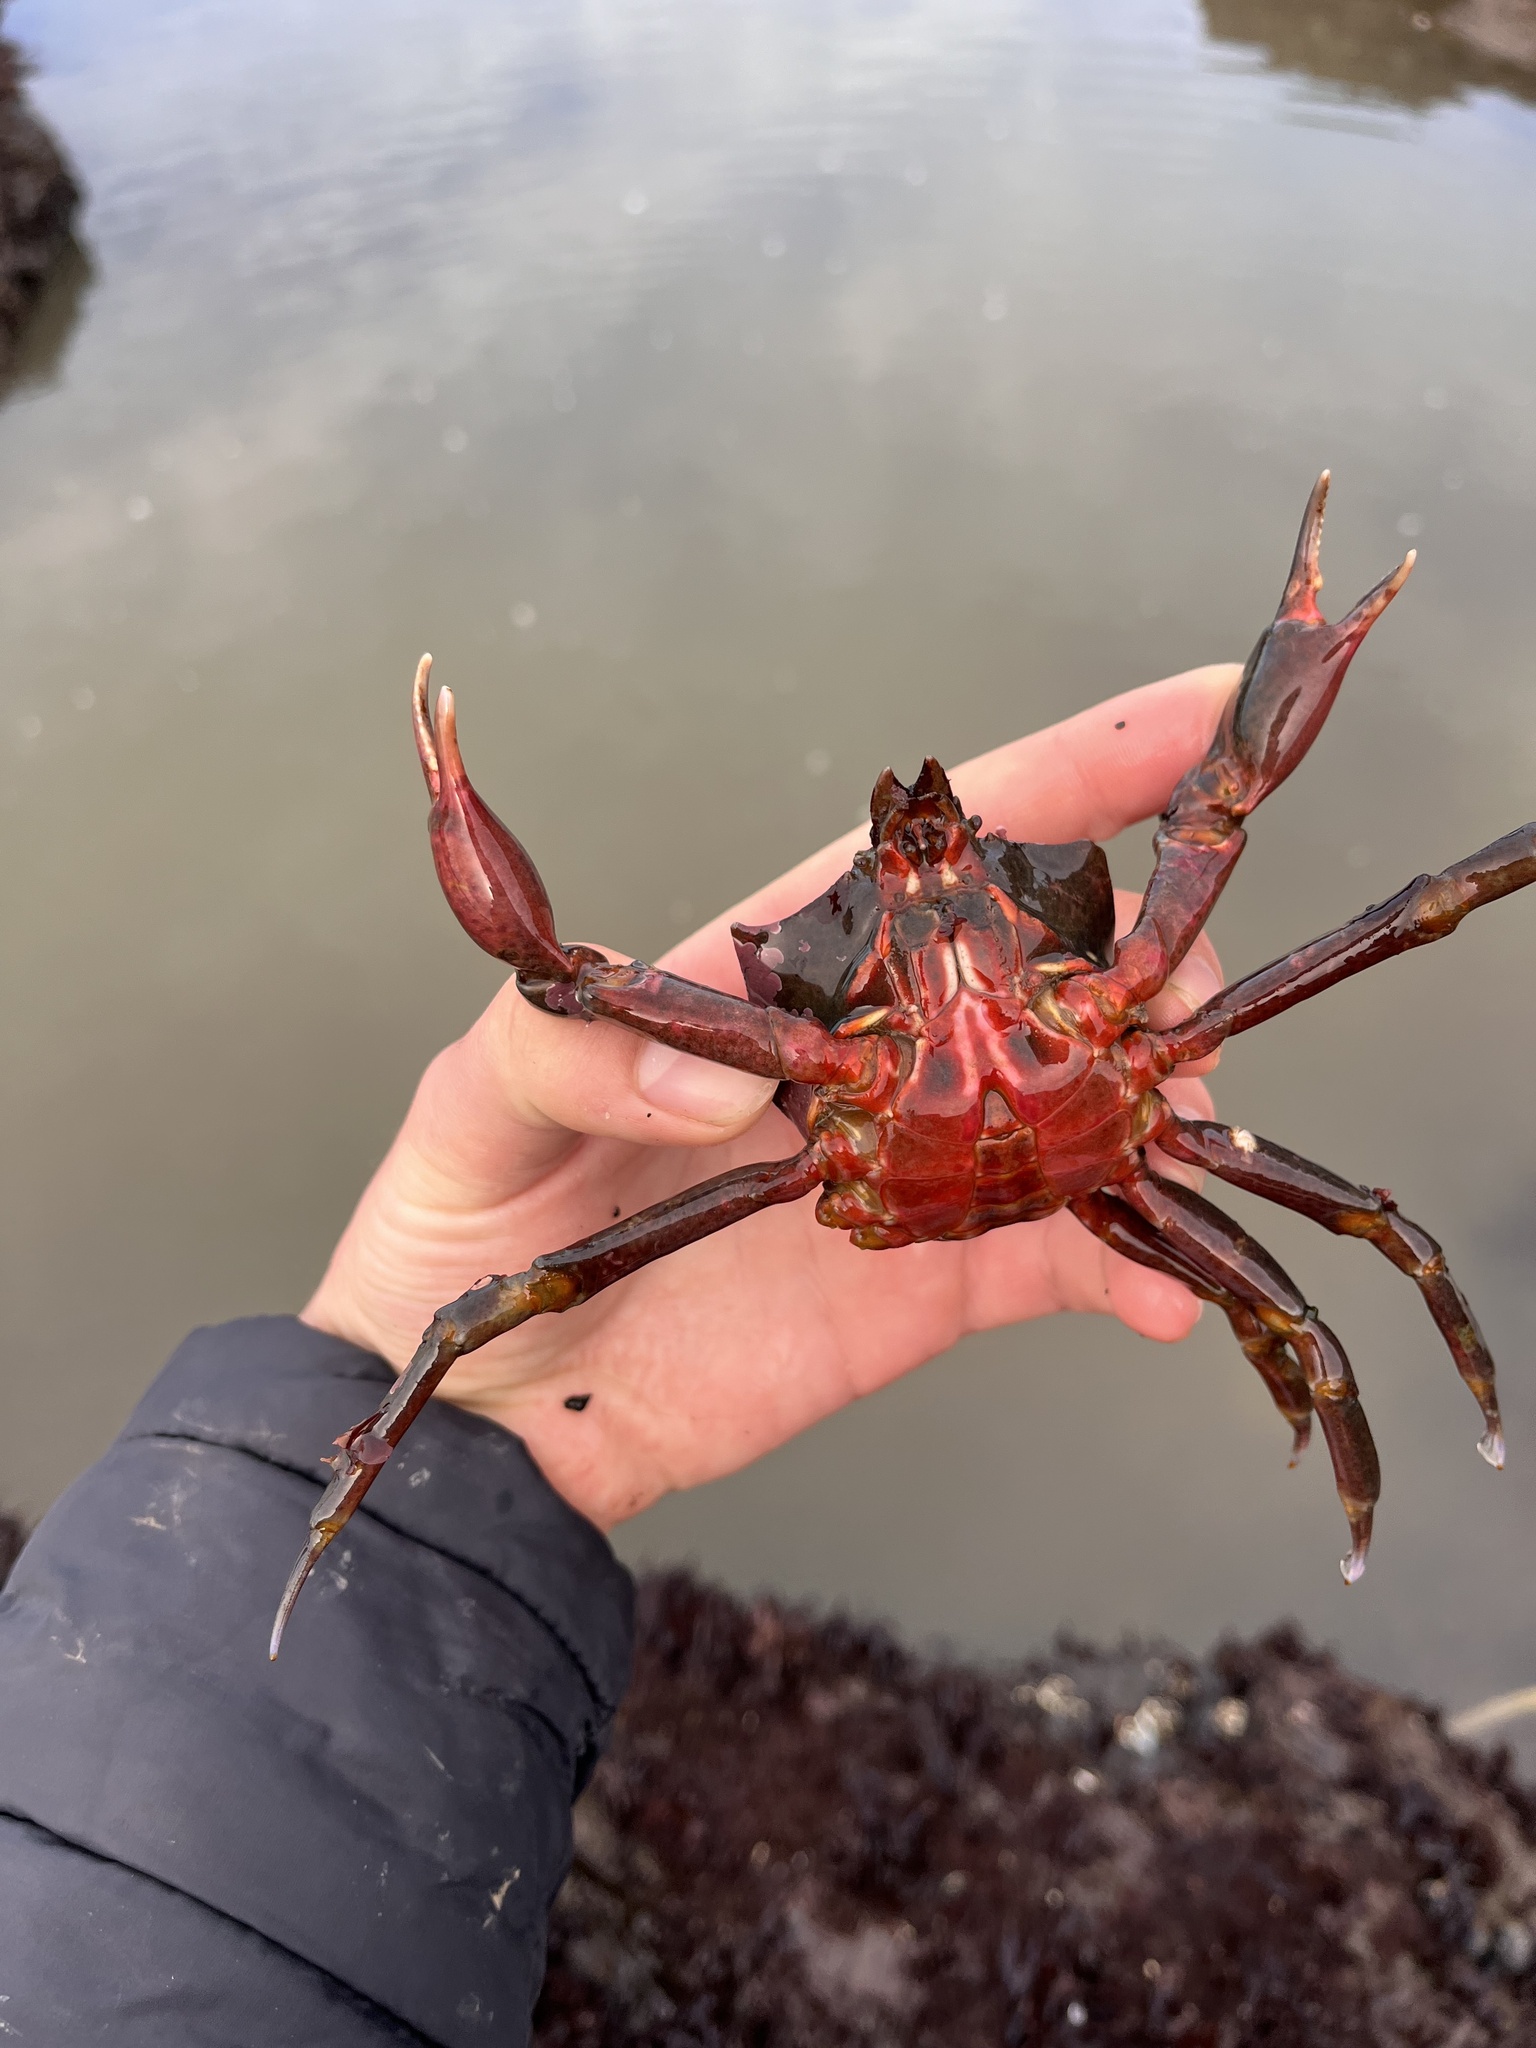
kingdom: Animalia
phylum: Arthropoda
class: Malacostraca
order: Decapoda
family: Epialtidae
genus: Pugettia
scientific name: Pugettia producta
